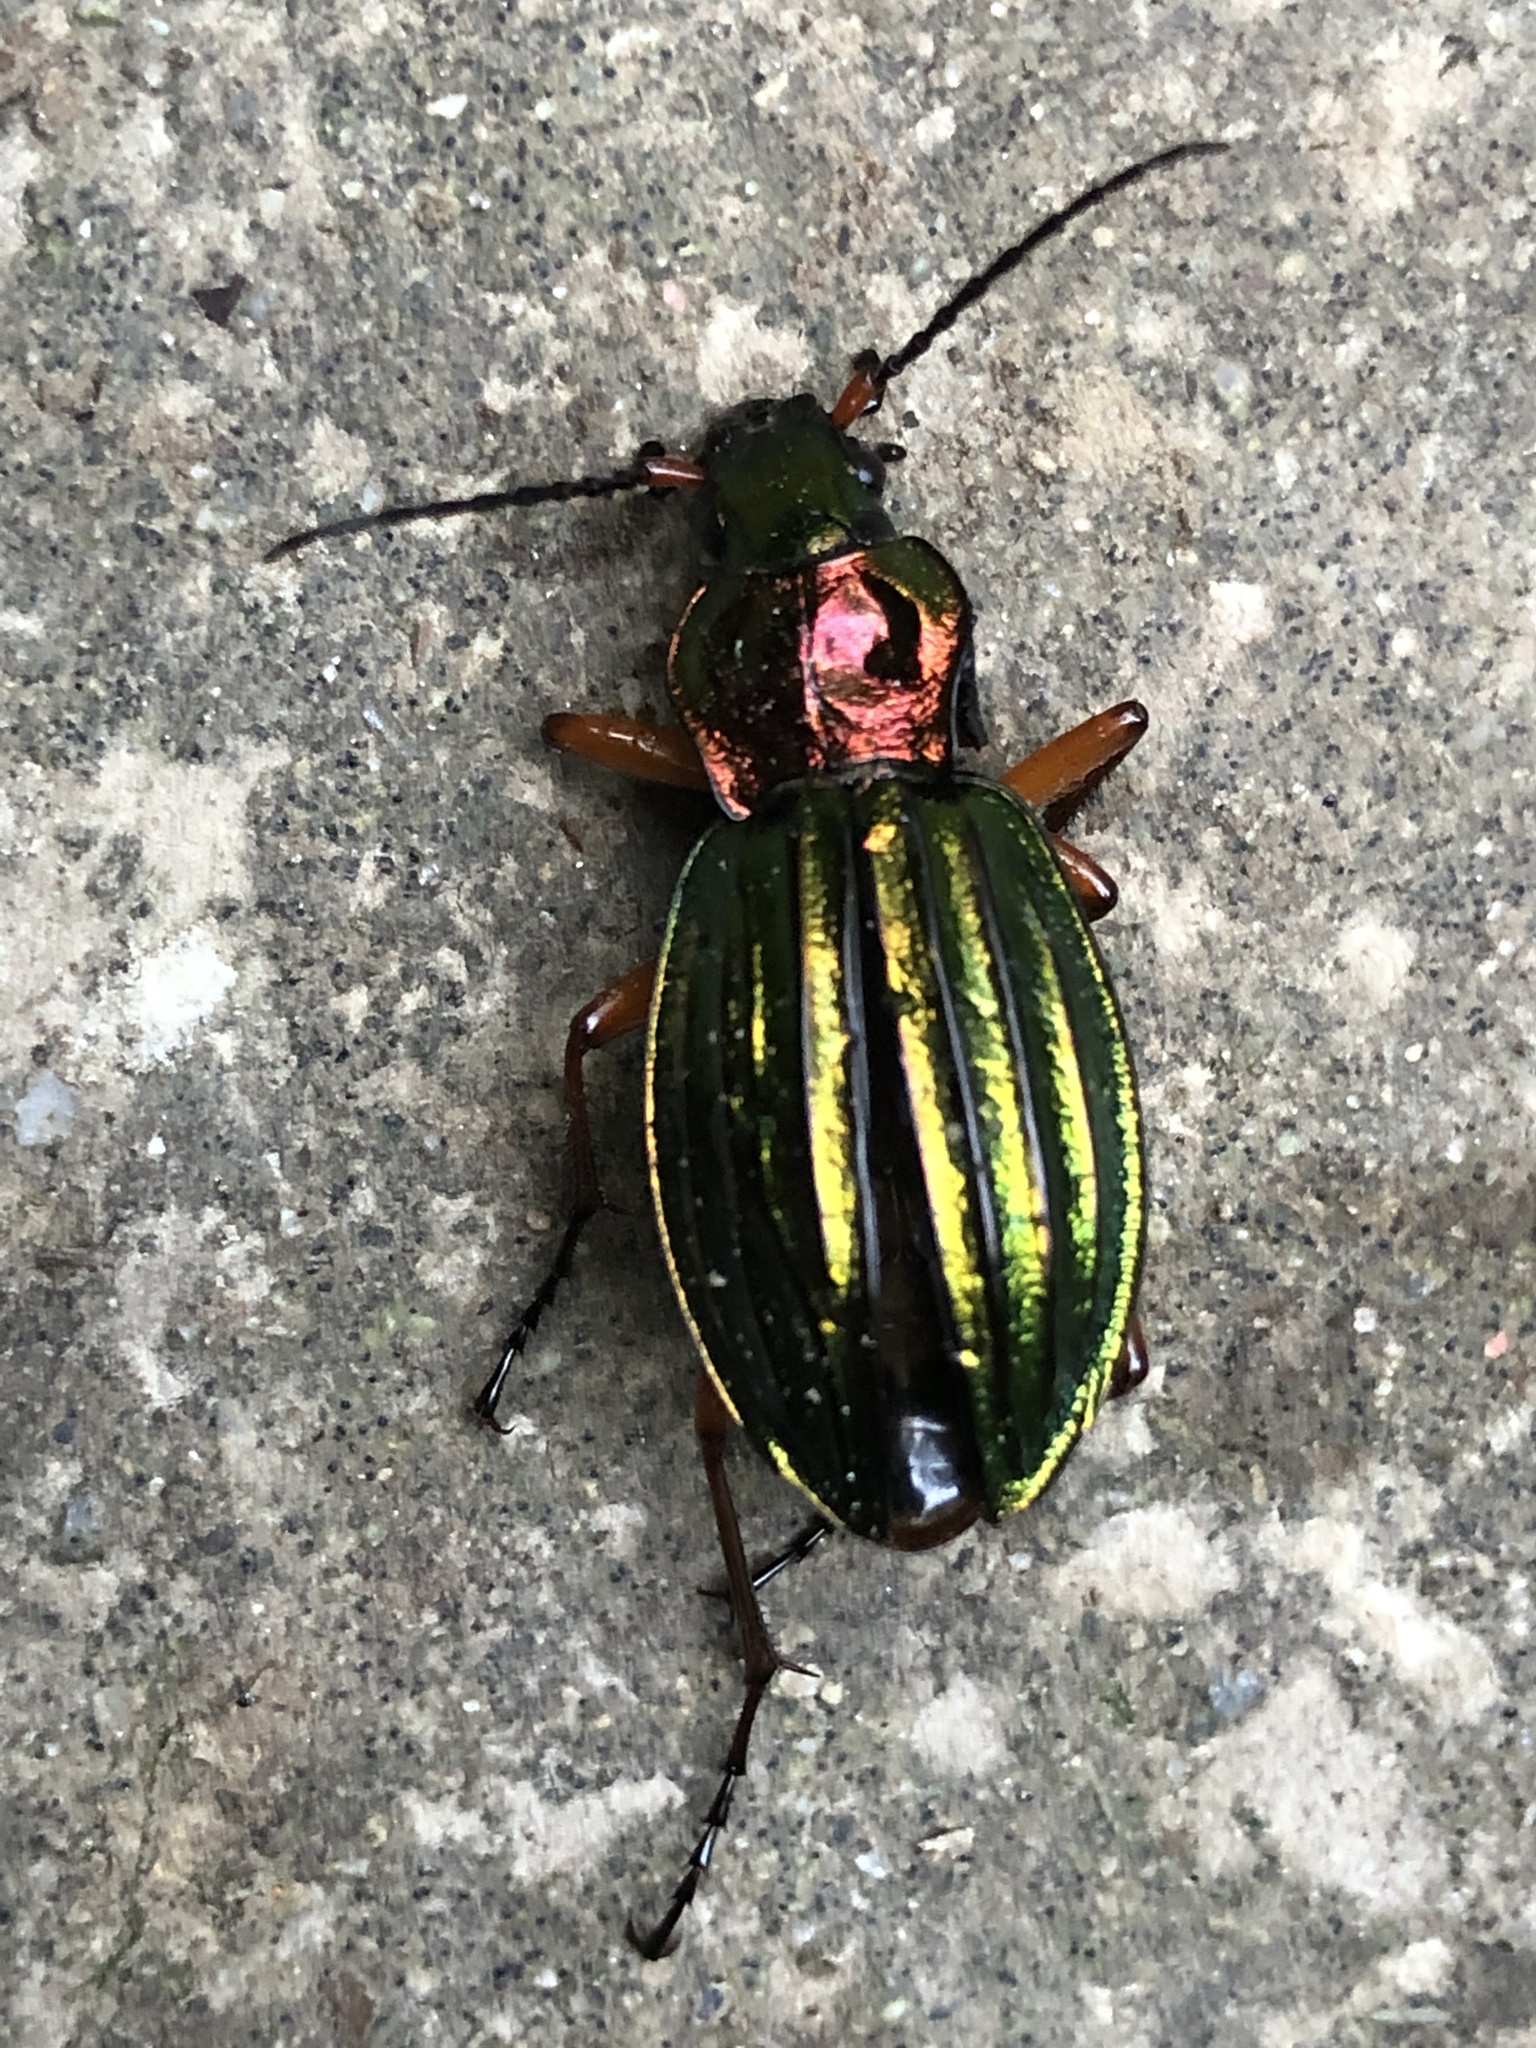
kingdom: Animalia
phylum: Arthropoda
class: Insecta
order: Coleoptera
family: Carabidae
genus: Carabus
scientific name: Carabus auronitens
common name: Carabus auronitens
